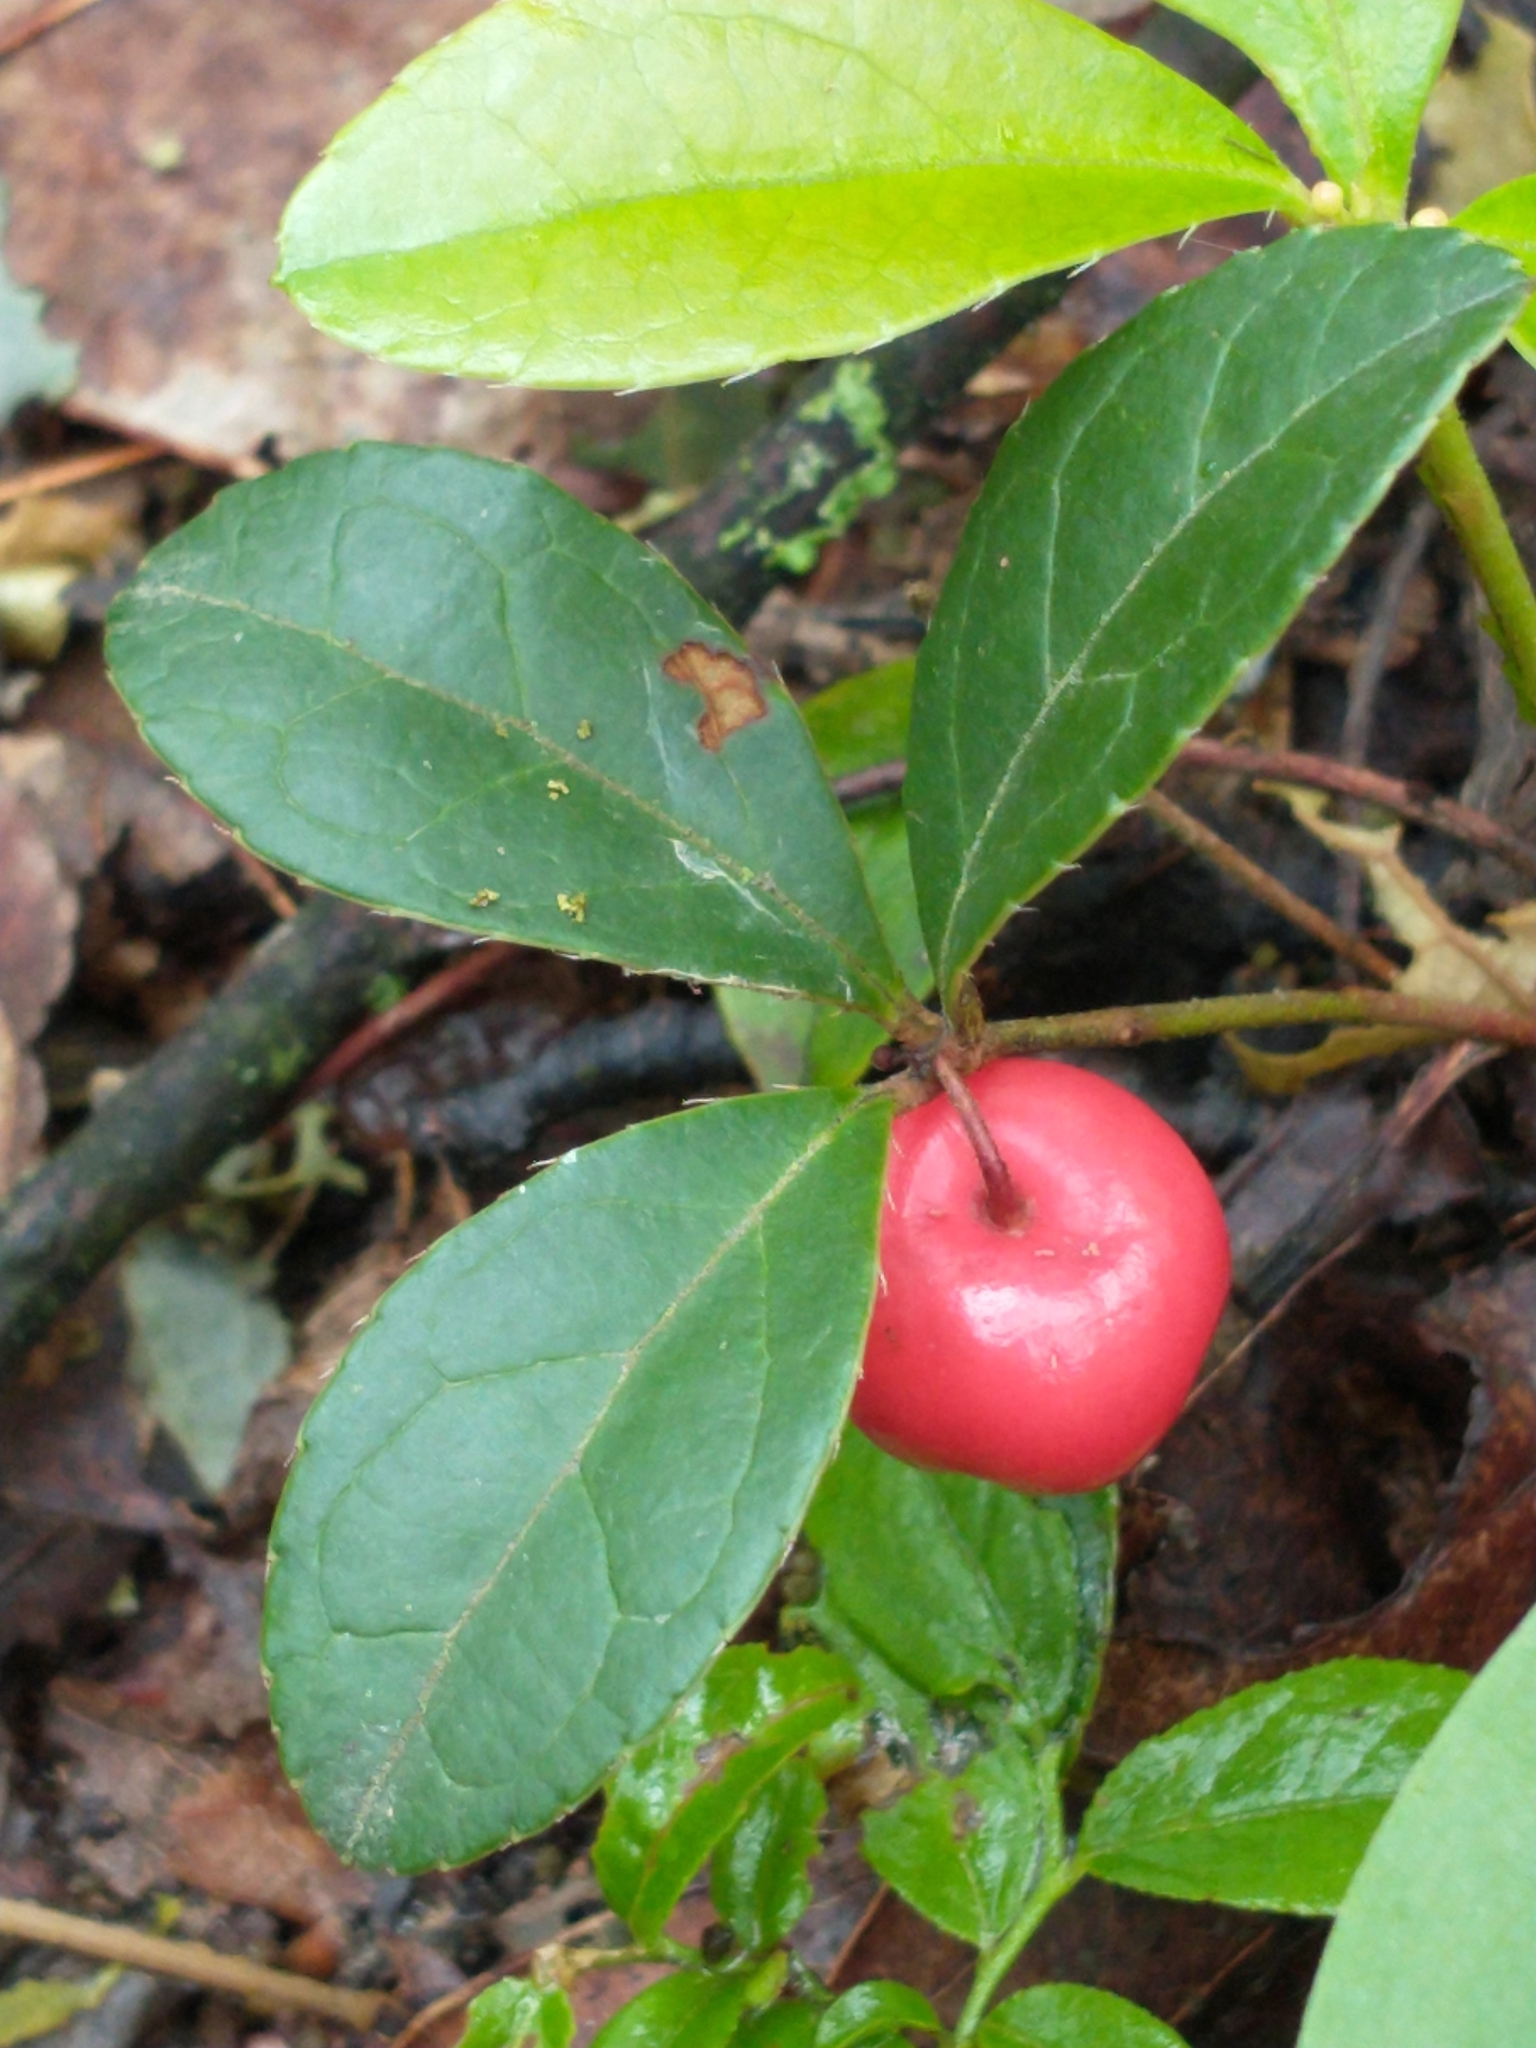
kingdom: Plantae
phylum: Tracheophyta
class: Magnoliopsida
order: Ericales
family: Ericaceae
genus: Gaultheria
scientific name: Gaultheria procumbens
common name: Checkerberry
